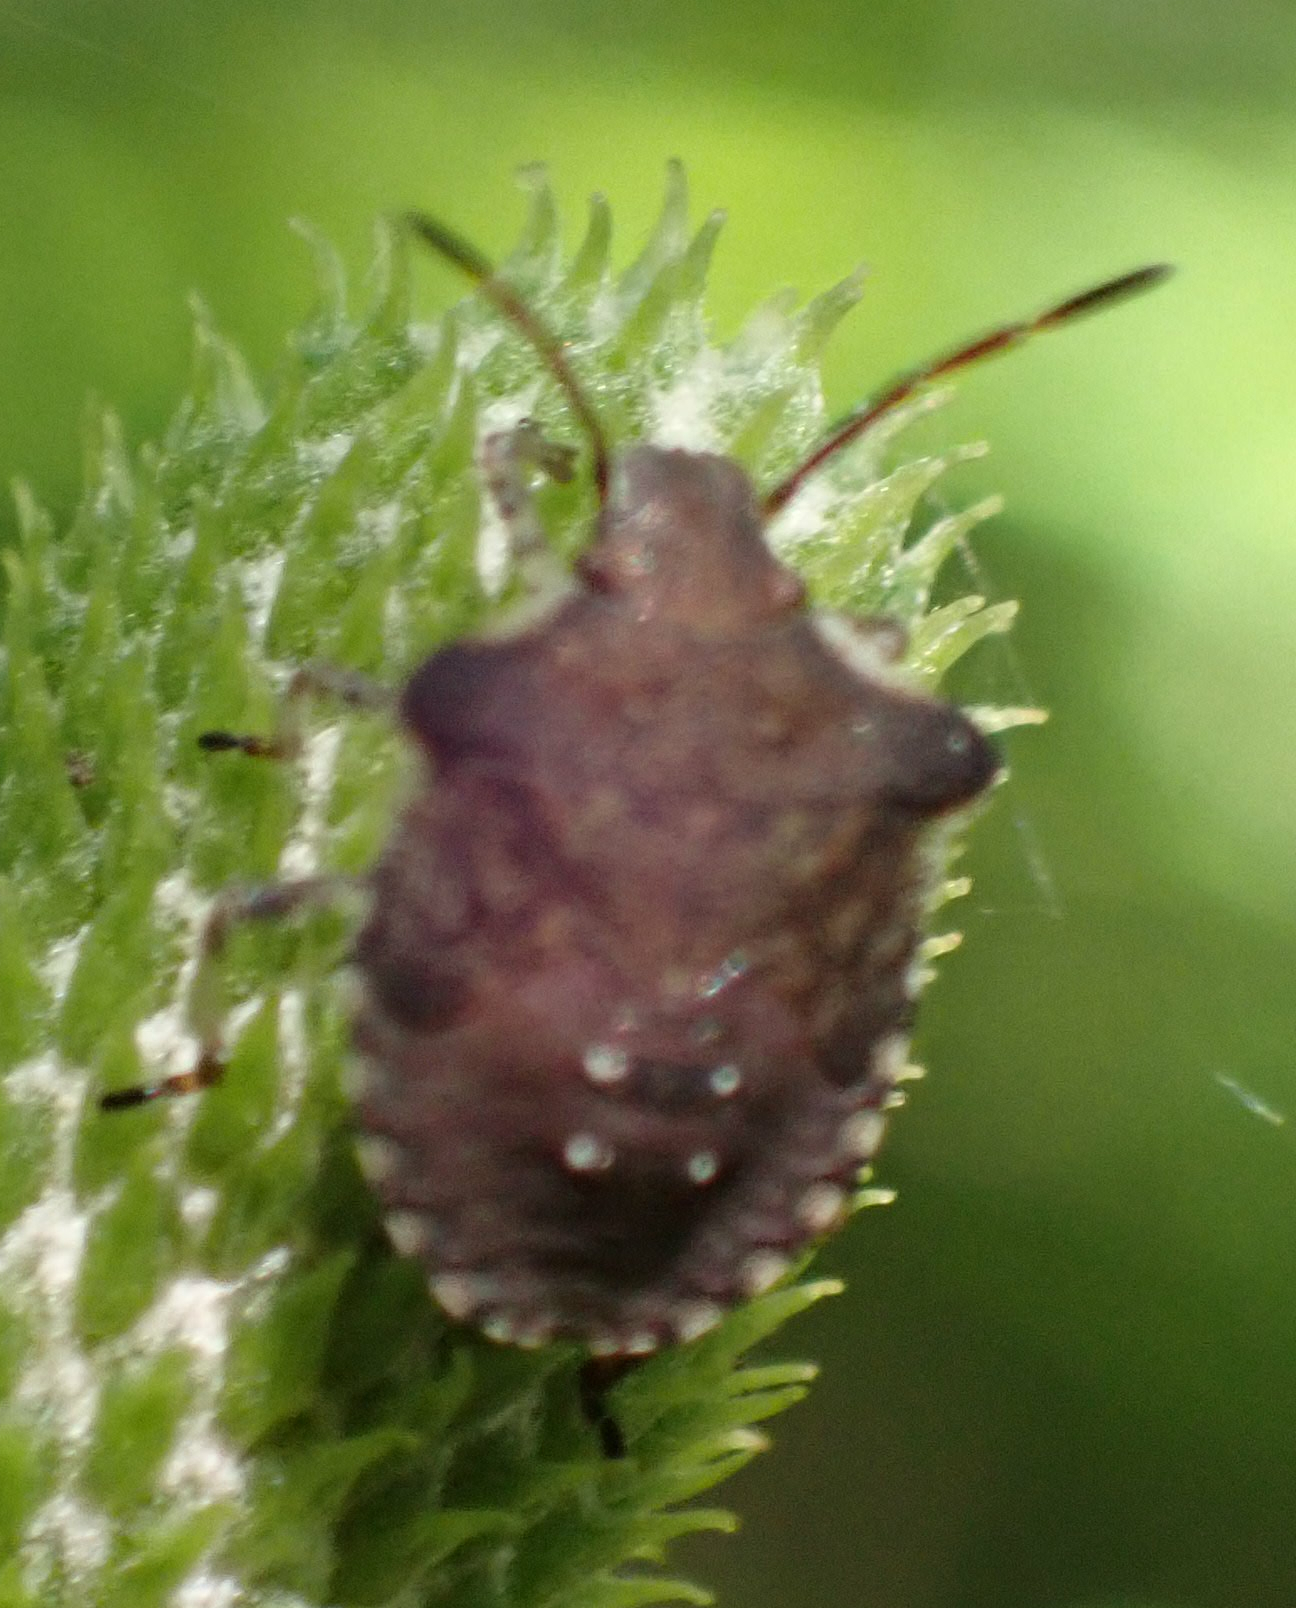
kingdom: Animalia
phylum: Arthropoda
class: Insecta
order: Hemiptera
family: Pentatomidae
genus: Euschistus
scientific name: Euschistus tristigmus
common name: Dusky stink bug
